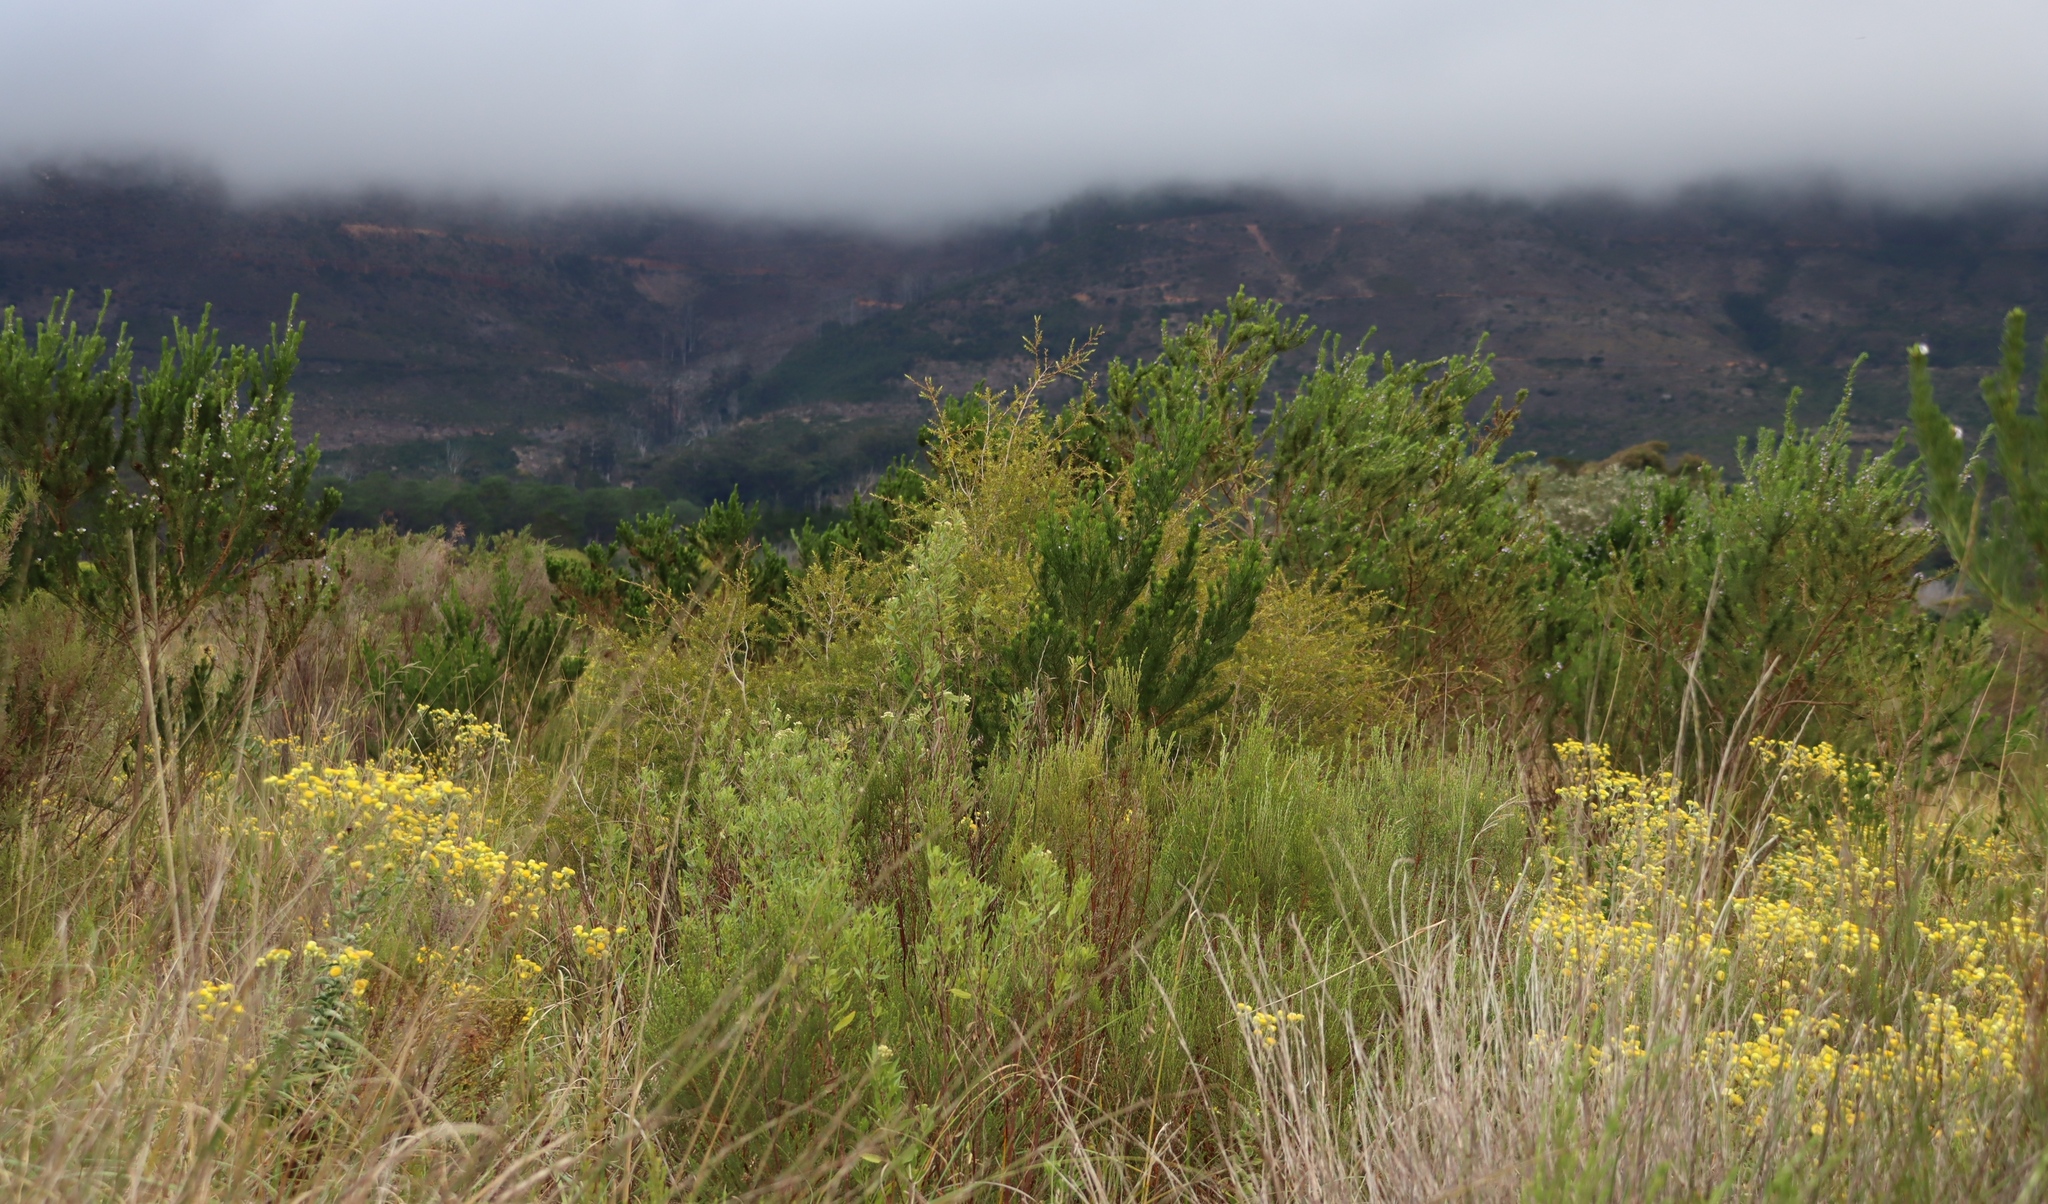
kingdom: Plantae
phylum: Tracheophyta
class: Magnoliopsida
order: Myrtales
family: Myrtaceae
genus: Melaleuca
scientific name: Melaleuca styphelioides
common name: Prickly paperbark
